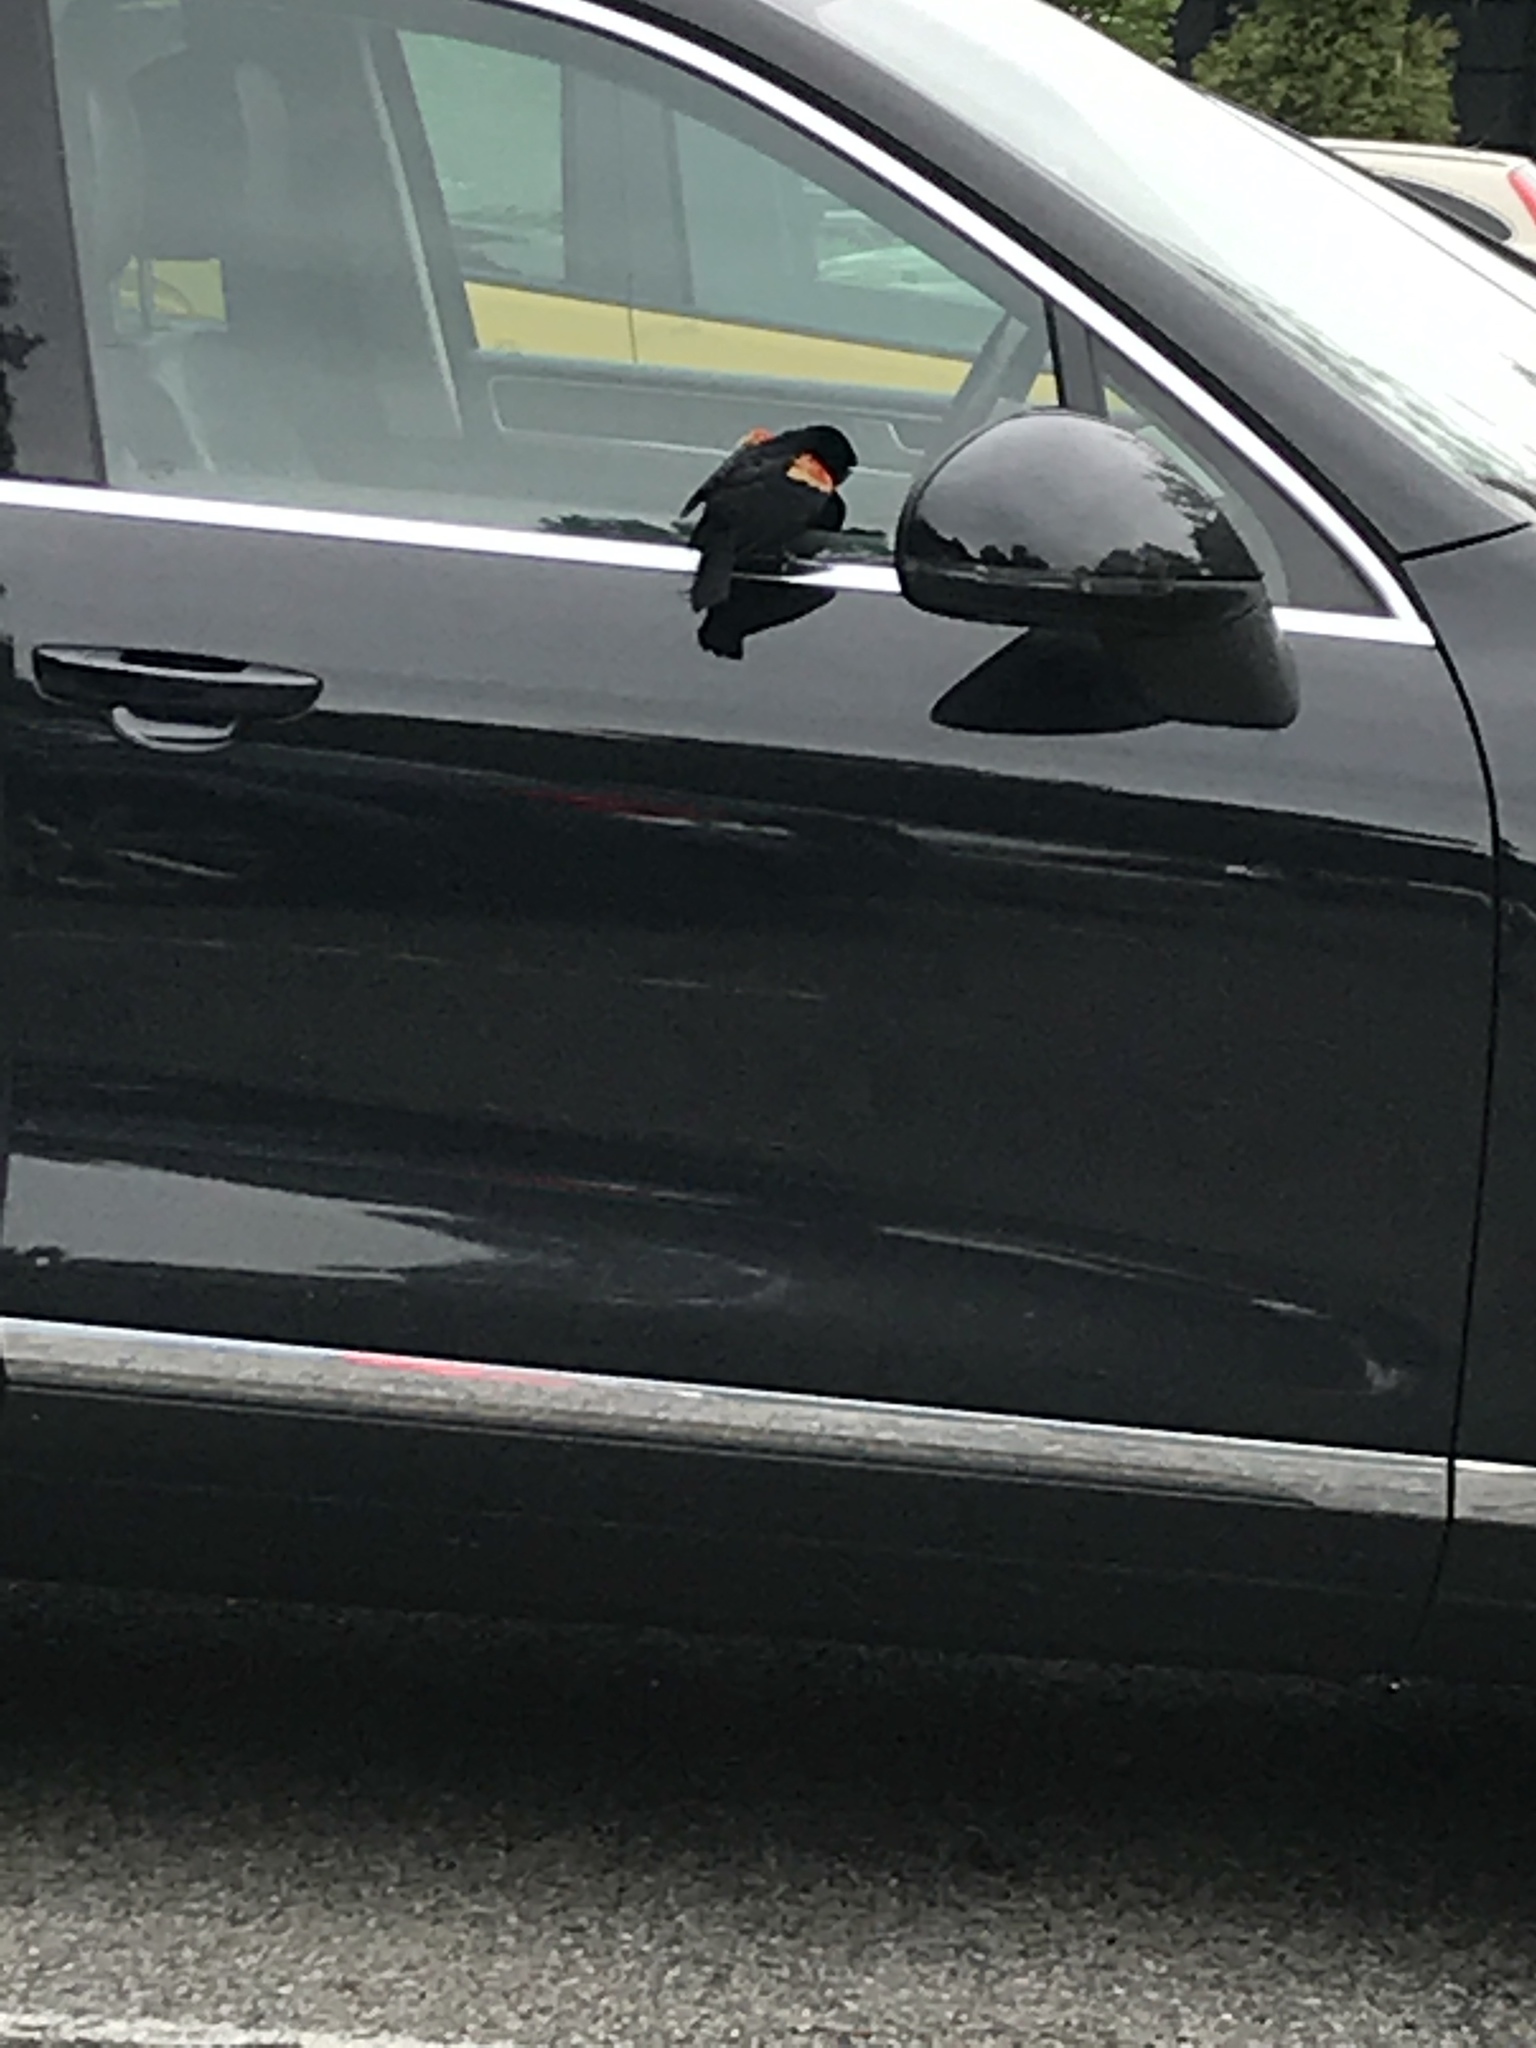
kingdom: Animalia
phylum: Chordata
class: Aves
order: Passeriformes
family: Icteridae
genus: Agelaius
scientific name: Agelaius phoeniceus
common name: Red-winged blackbird
